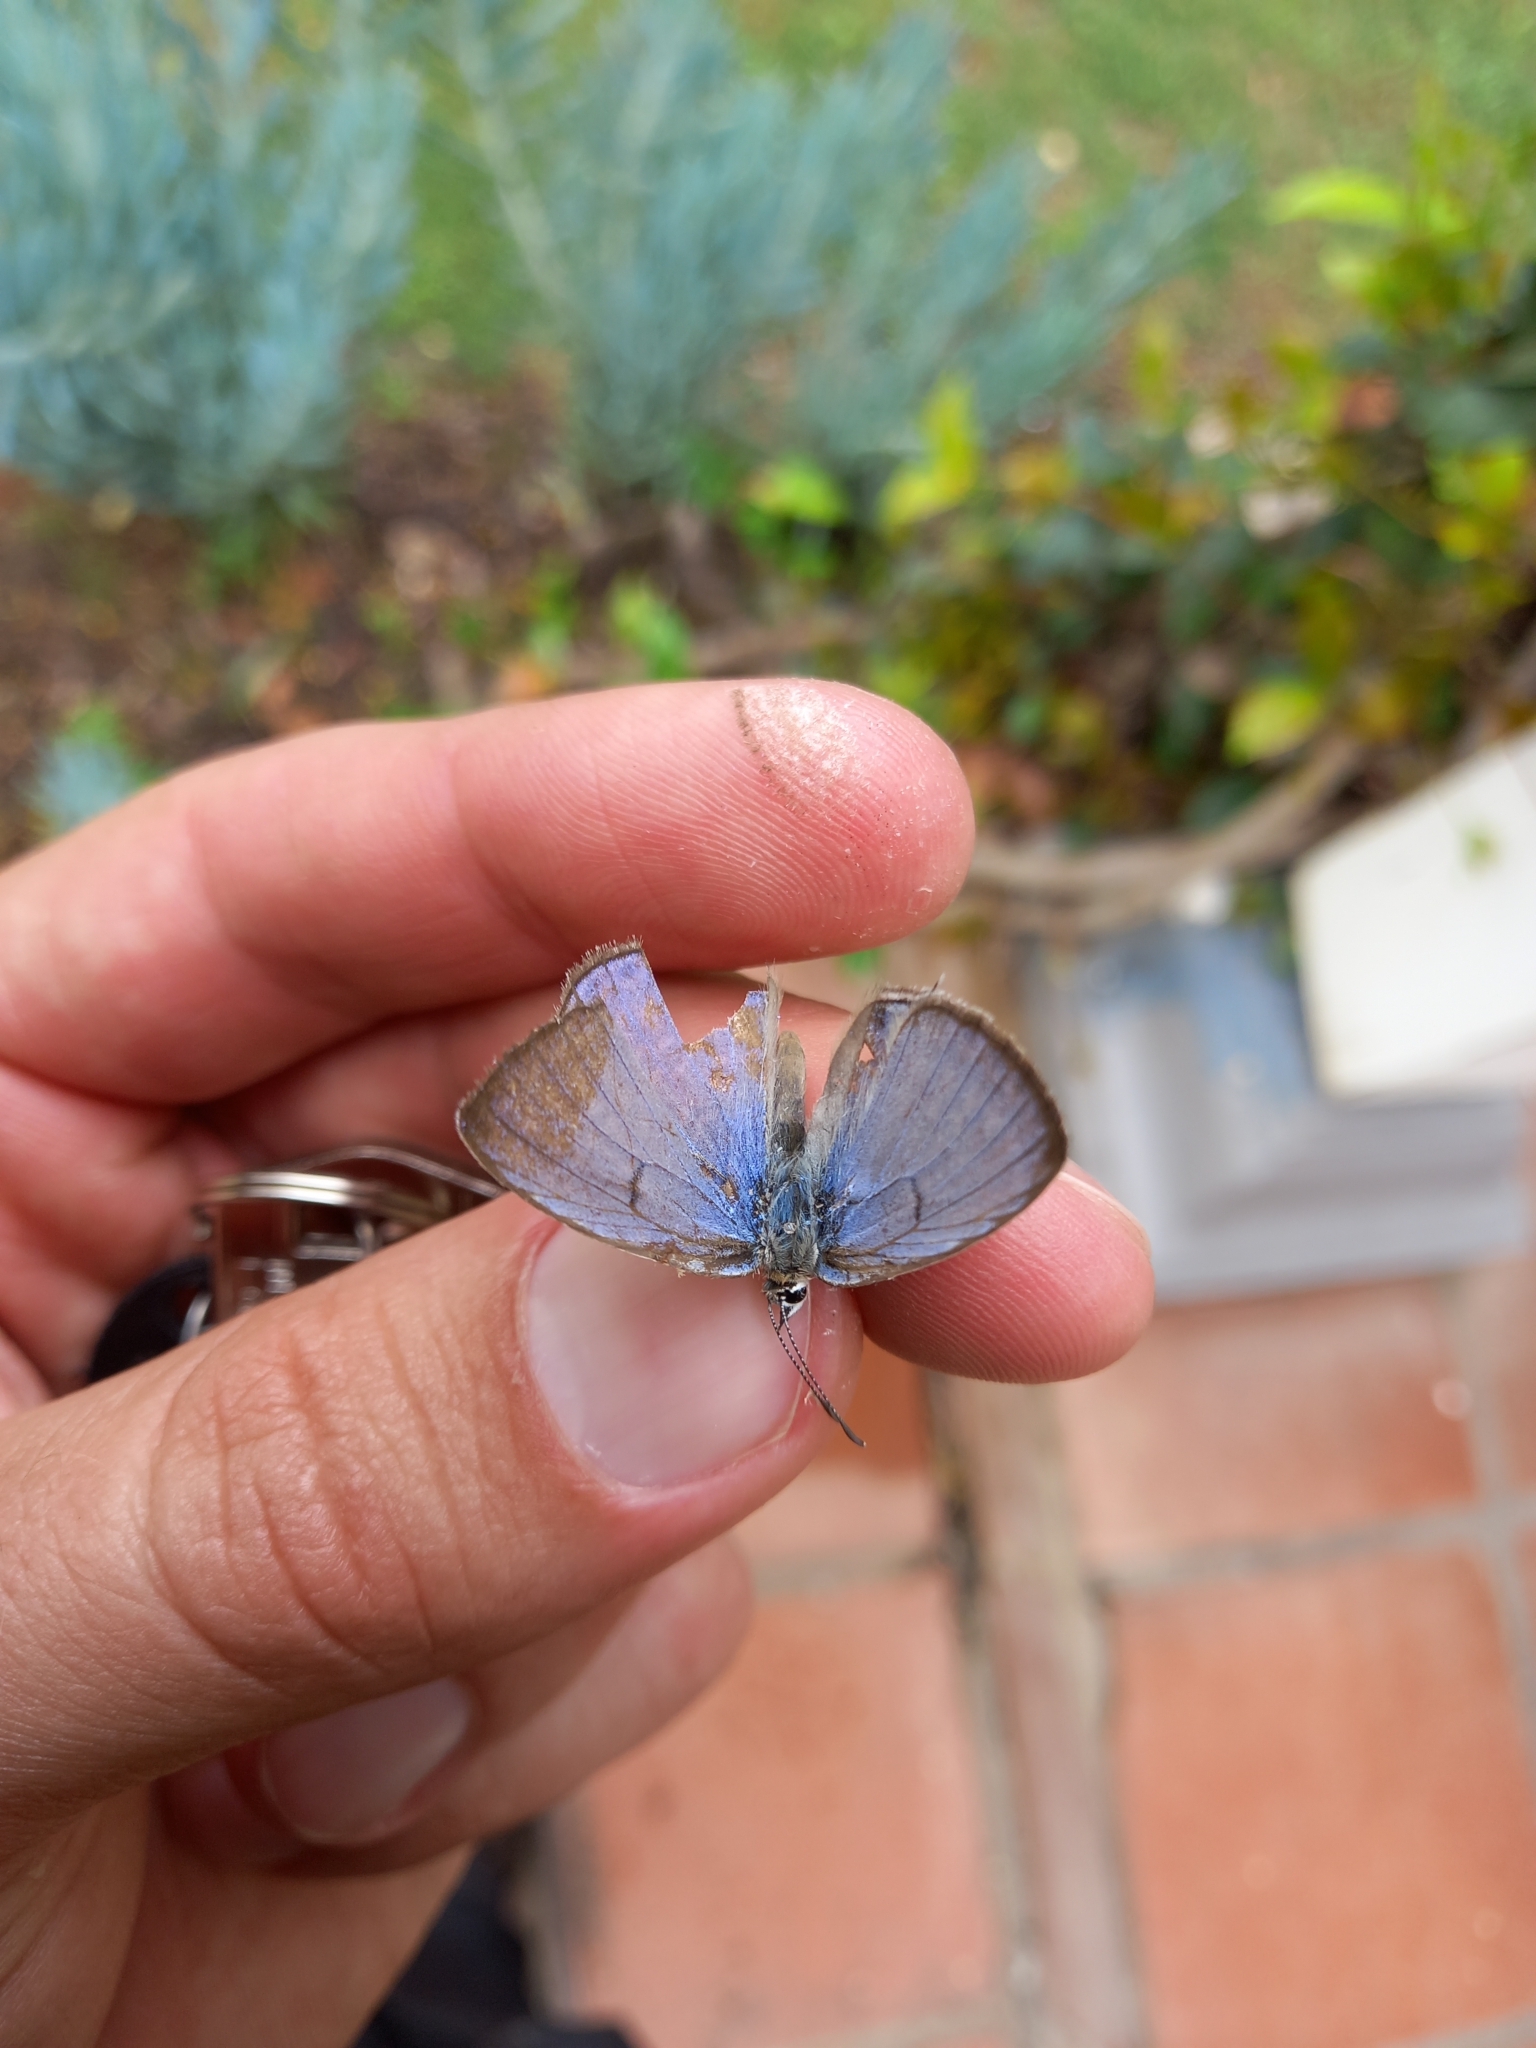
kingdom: Animalia
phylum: Arthropoda
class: Insecta
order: Lepidoptera
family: Lycaenidae
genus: Lepidochrysops
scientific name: Lepidochrysops patricia
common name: Patricia blue
